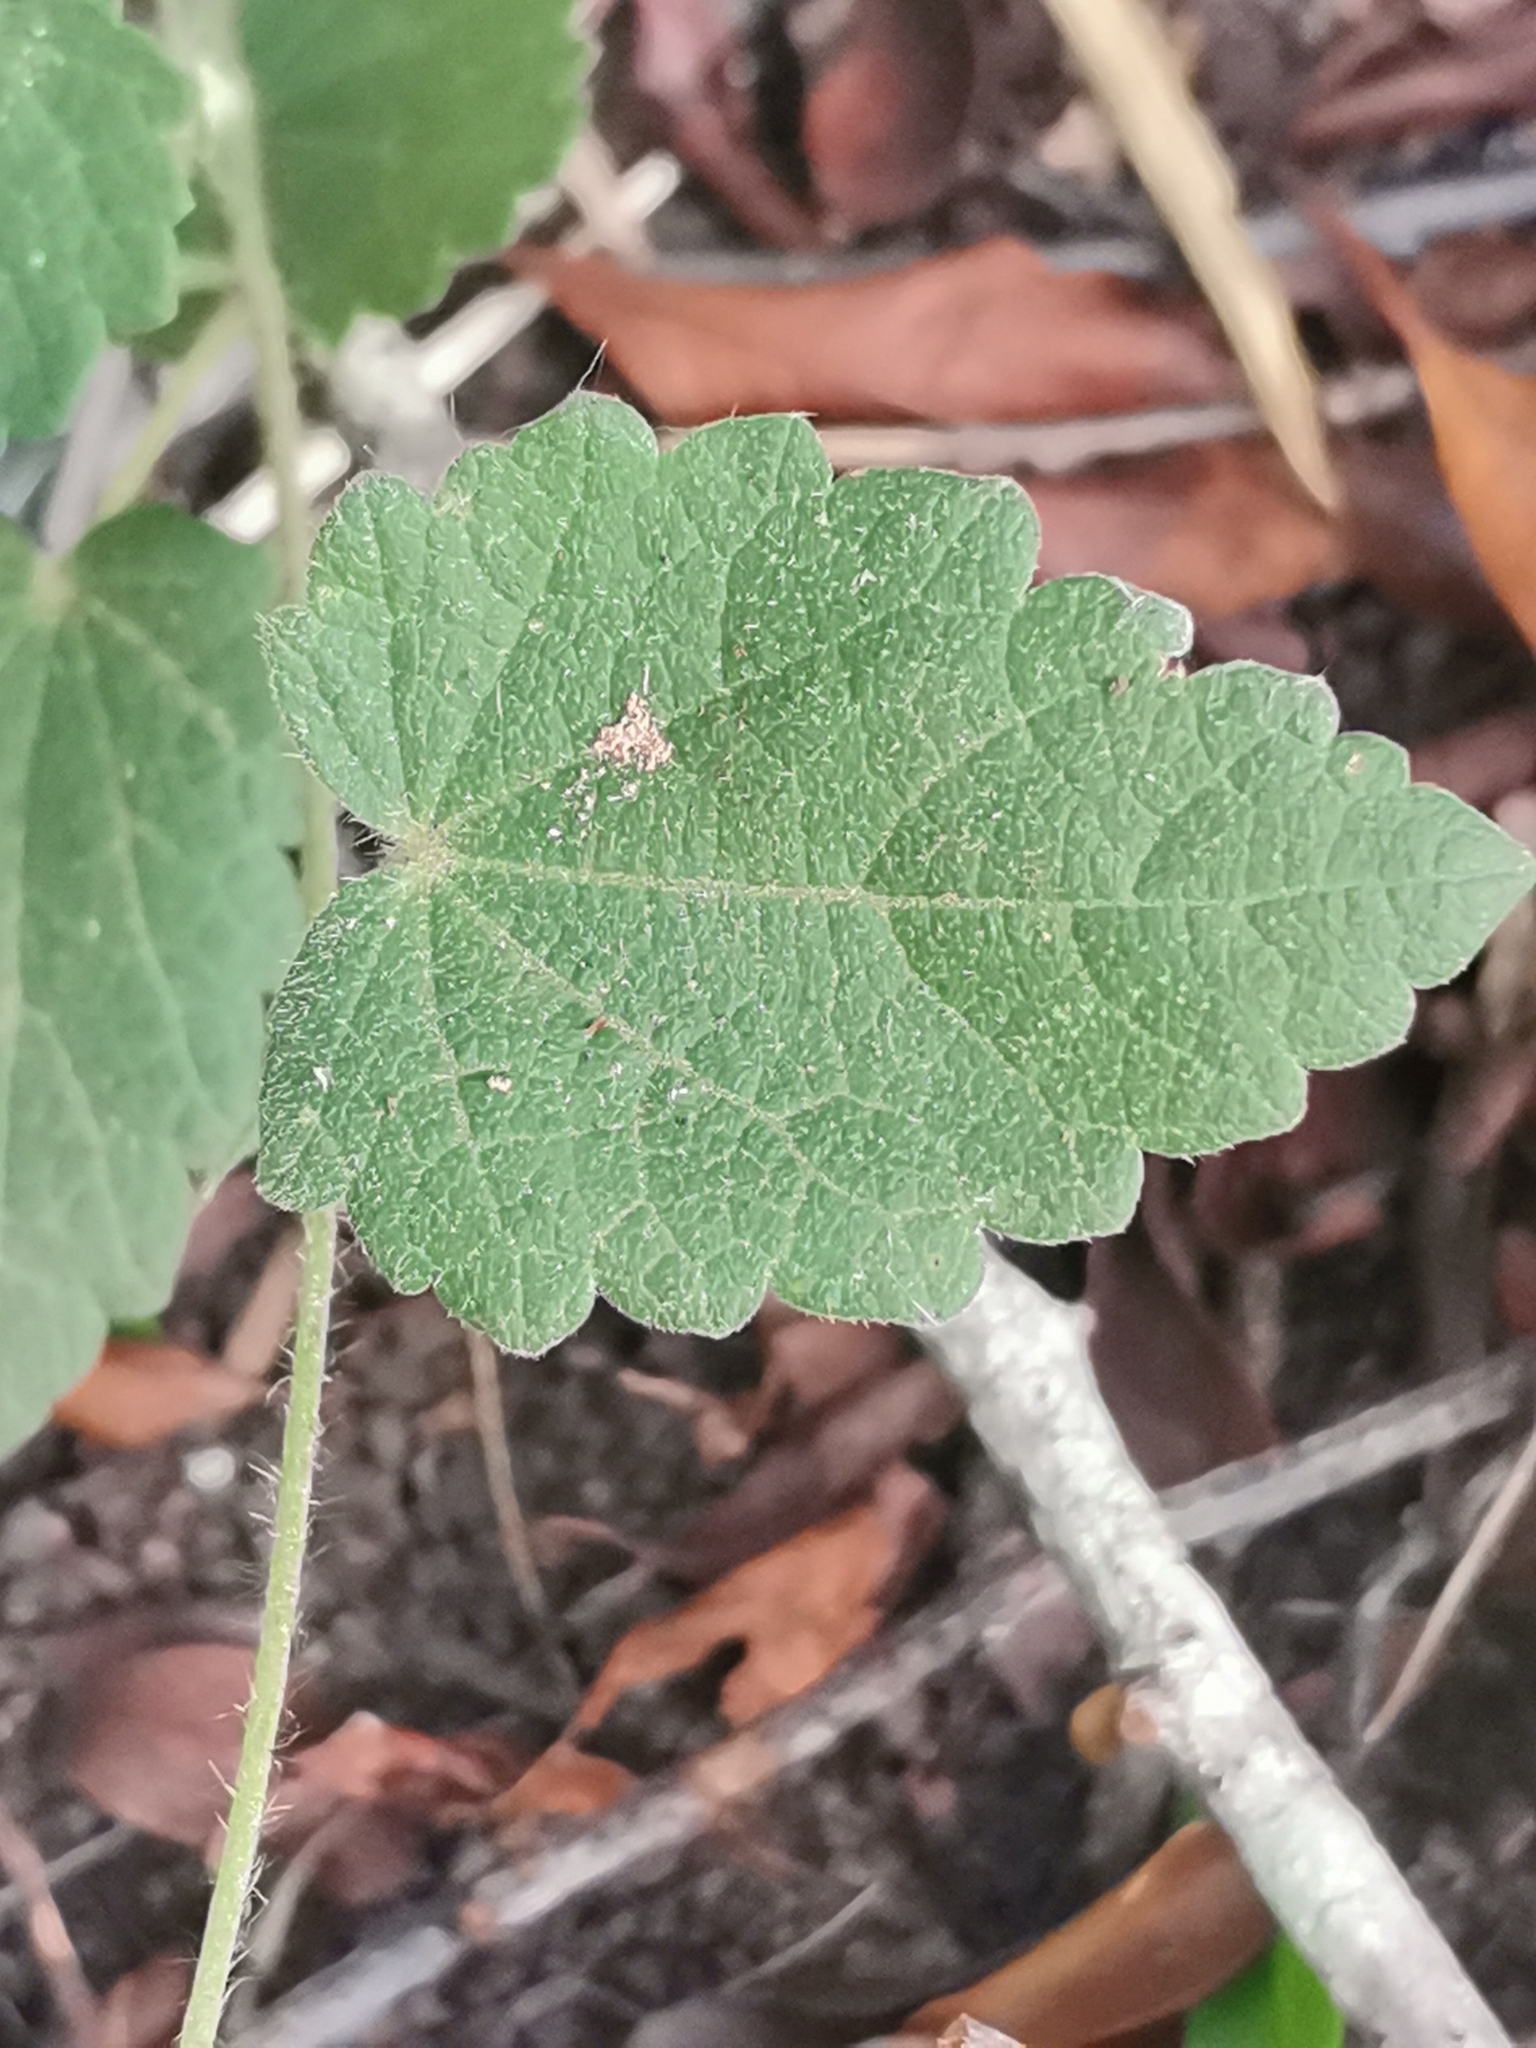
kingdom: Plantae
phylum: Tracheophyta
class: Magnoliopsida
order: Malvales
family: Malvaceae
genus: Krapovickasia
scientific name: Krapovickasia flavescens
